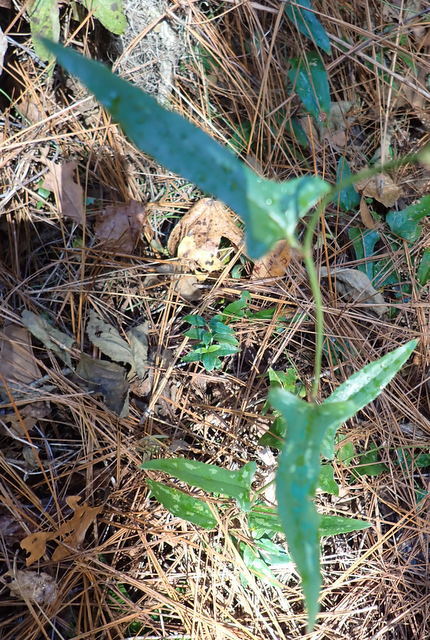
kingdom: Plantae
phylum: Tracheophyta
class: Liliopsida
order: Liliales
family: Smilacaceae
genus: Smilax
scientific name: Smilax bona-nox
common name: Catbrier
